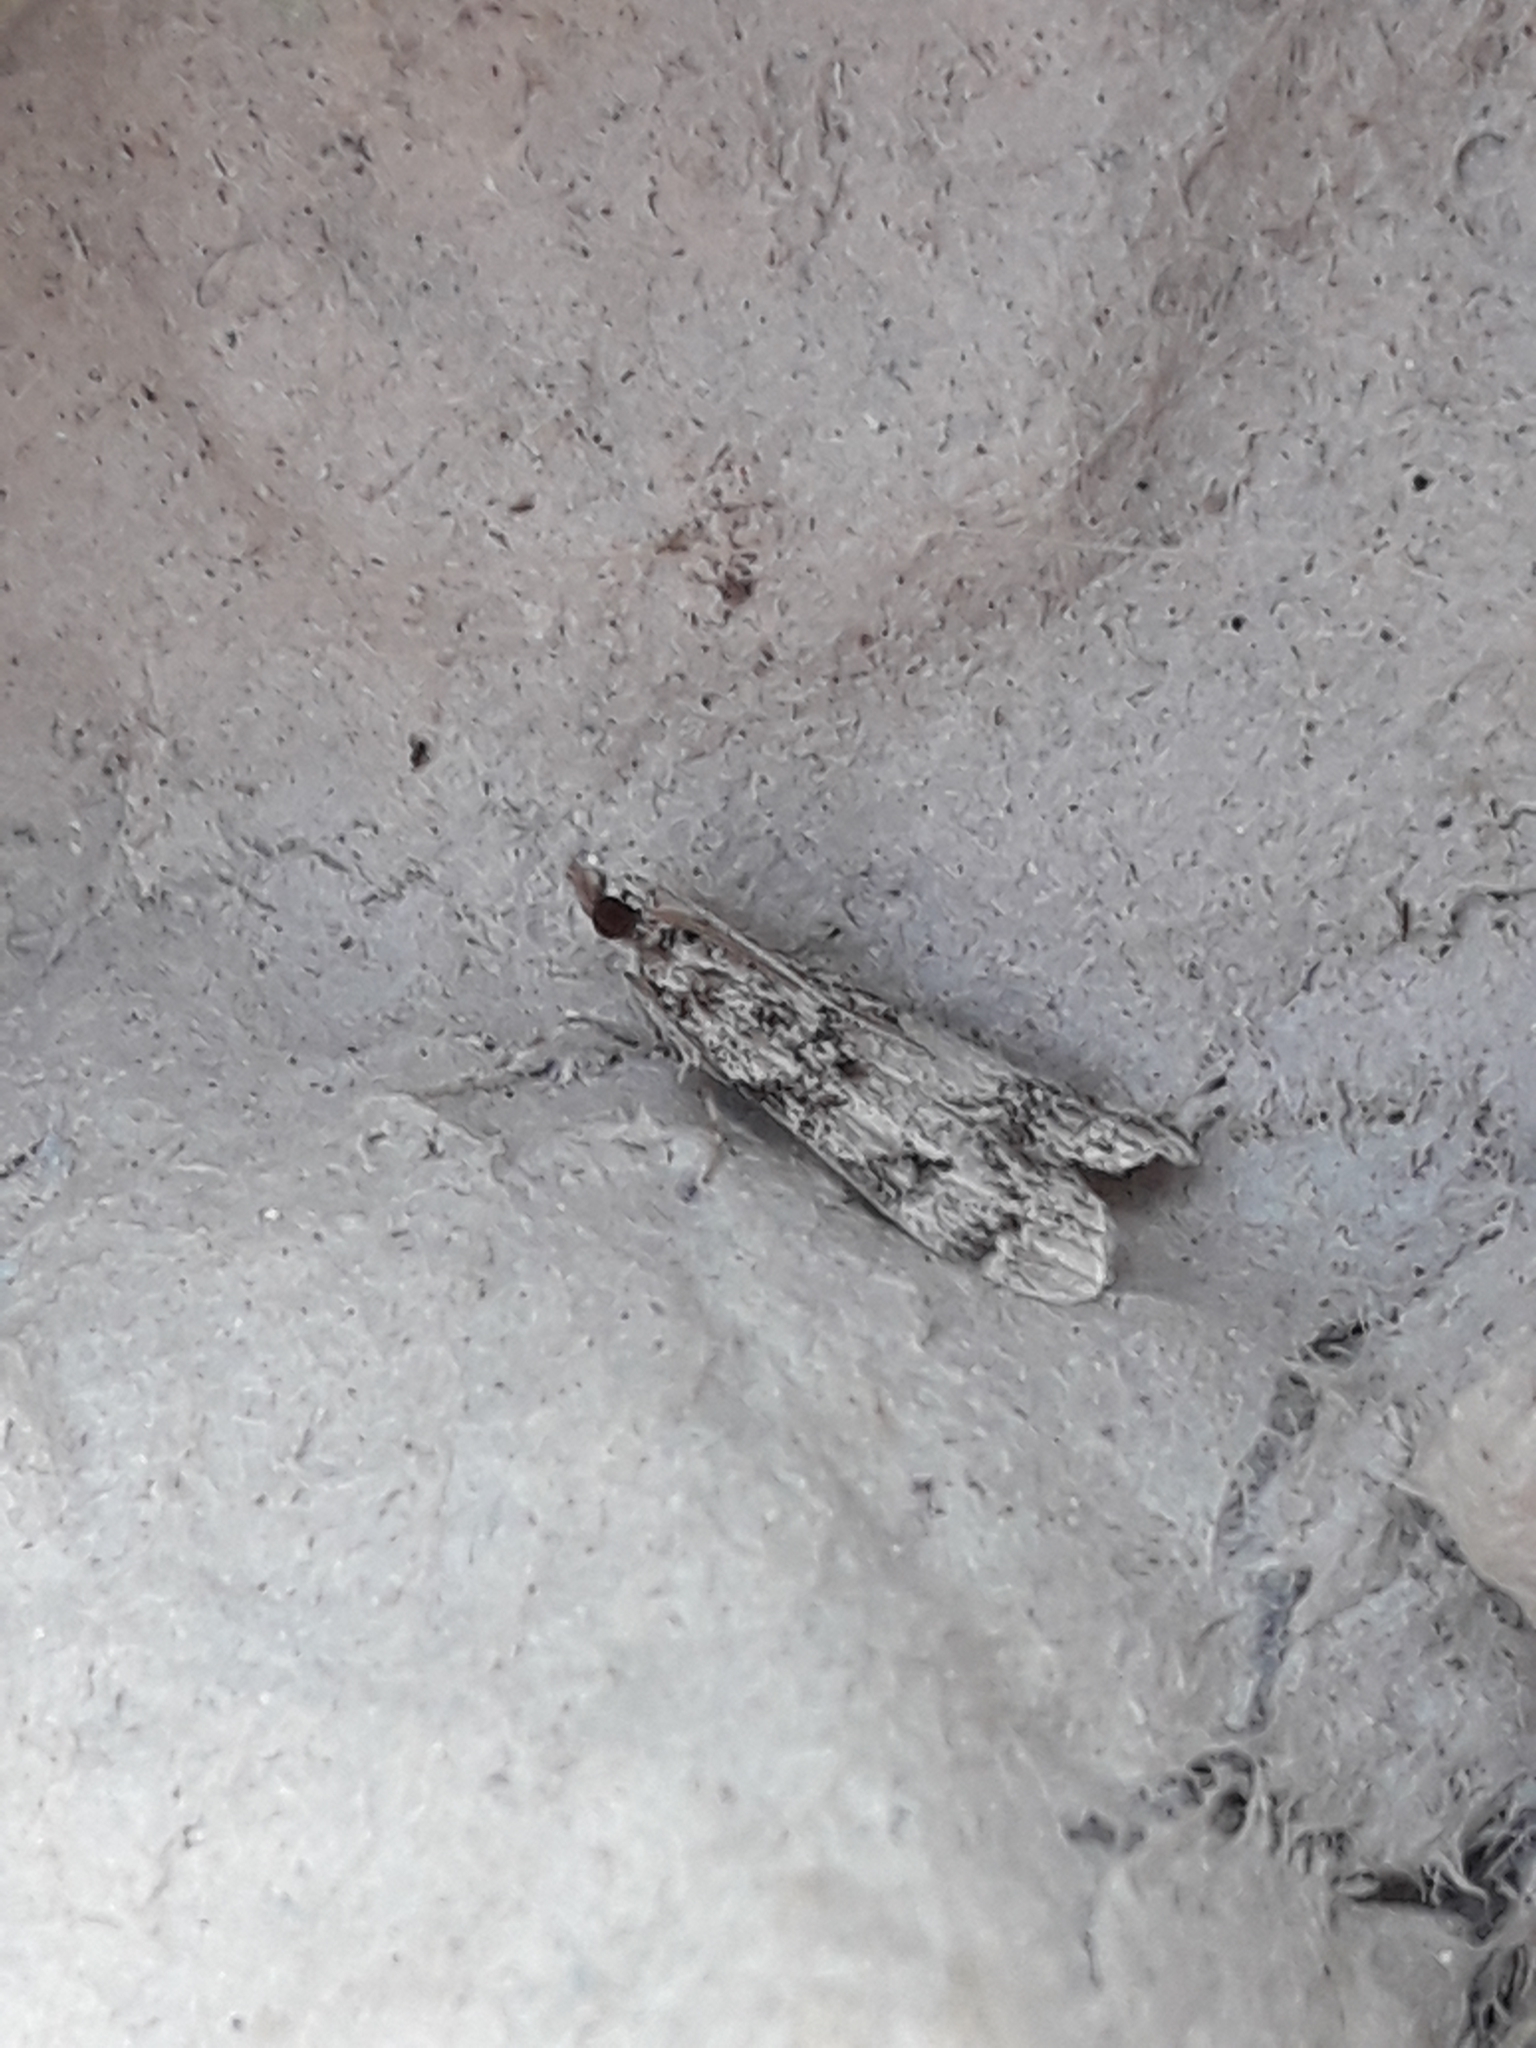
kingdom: Animalia
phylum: Arthropoda
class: Insecta
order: Lepidoptera
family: Crambidae
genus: Eudonia
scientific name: Eudonia lacustrata
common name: Little grey
